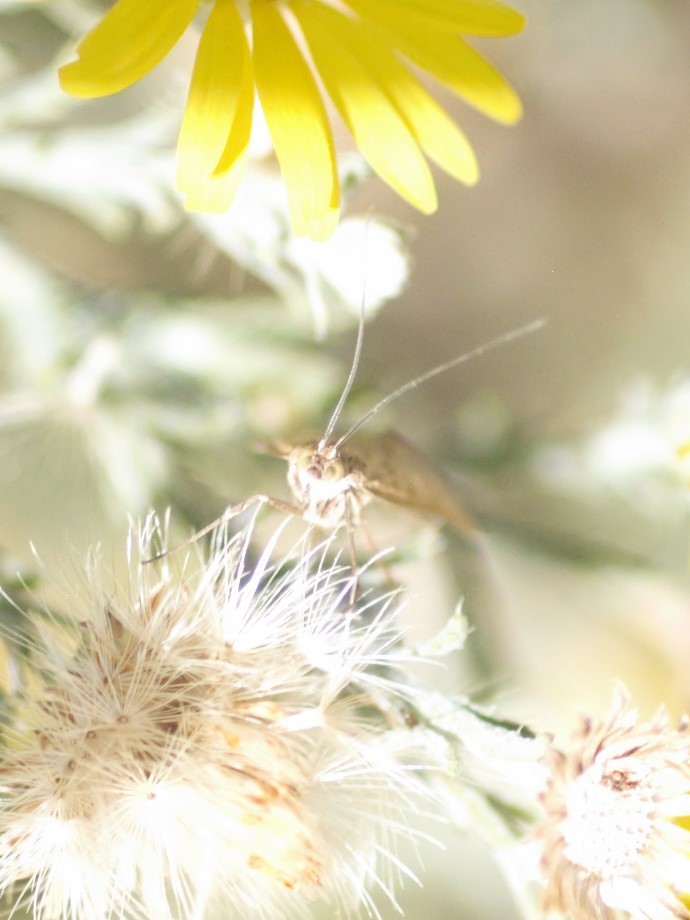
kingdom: Animalia
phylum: Arthropoda
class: Insecta
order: Lepidoptera
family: Crambidae
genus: Loxostege
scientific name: Loxostege
